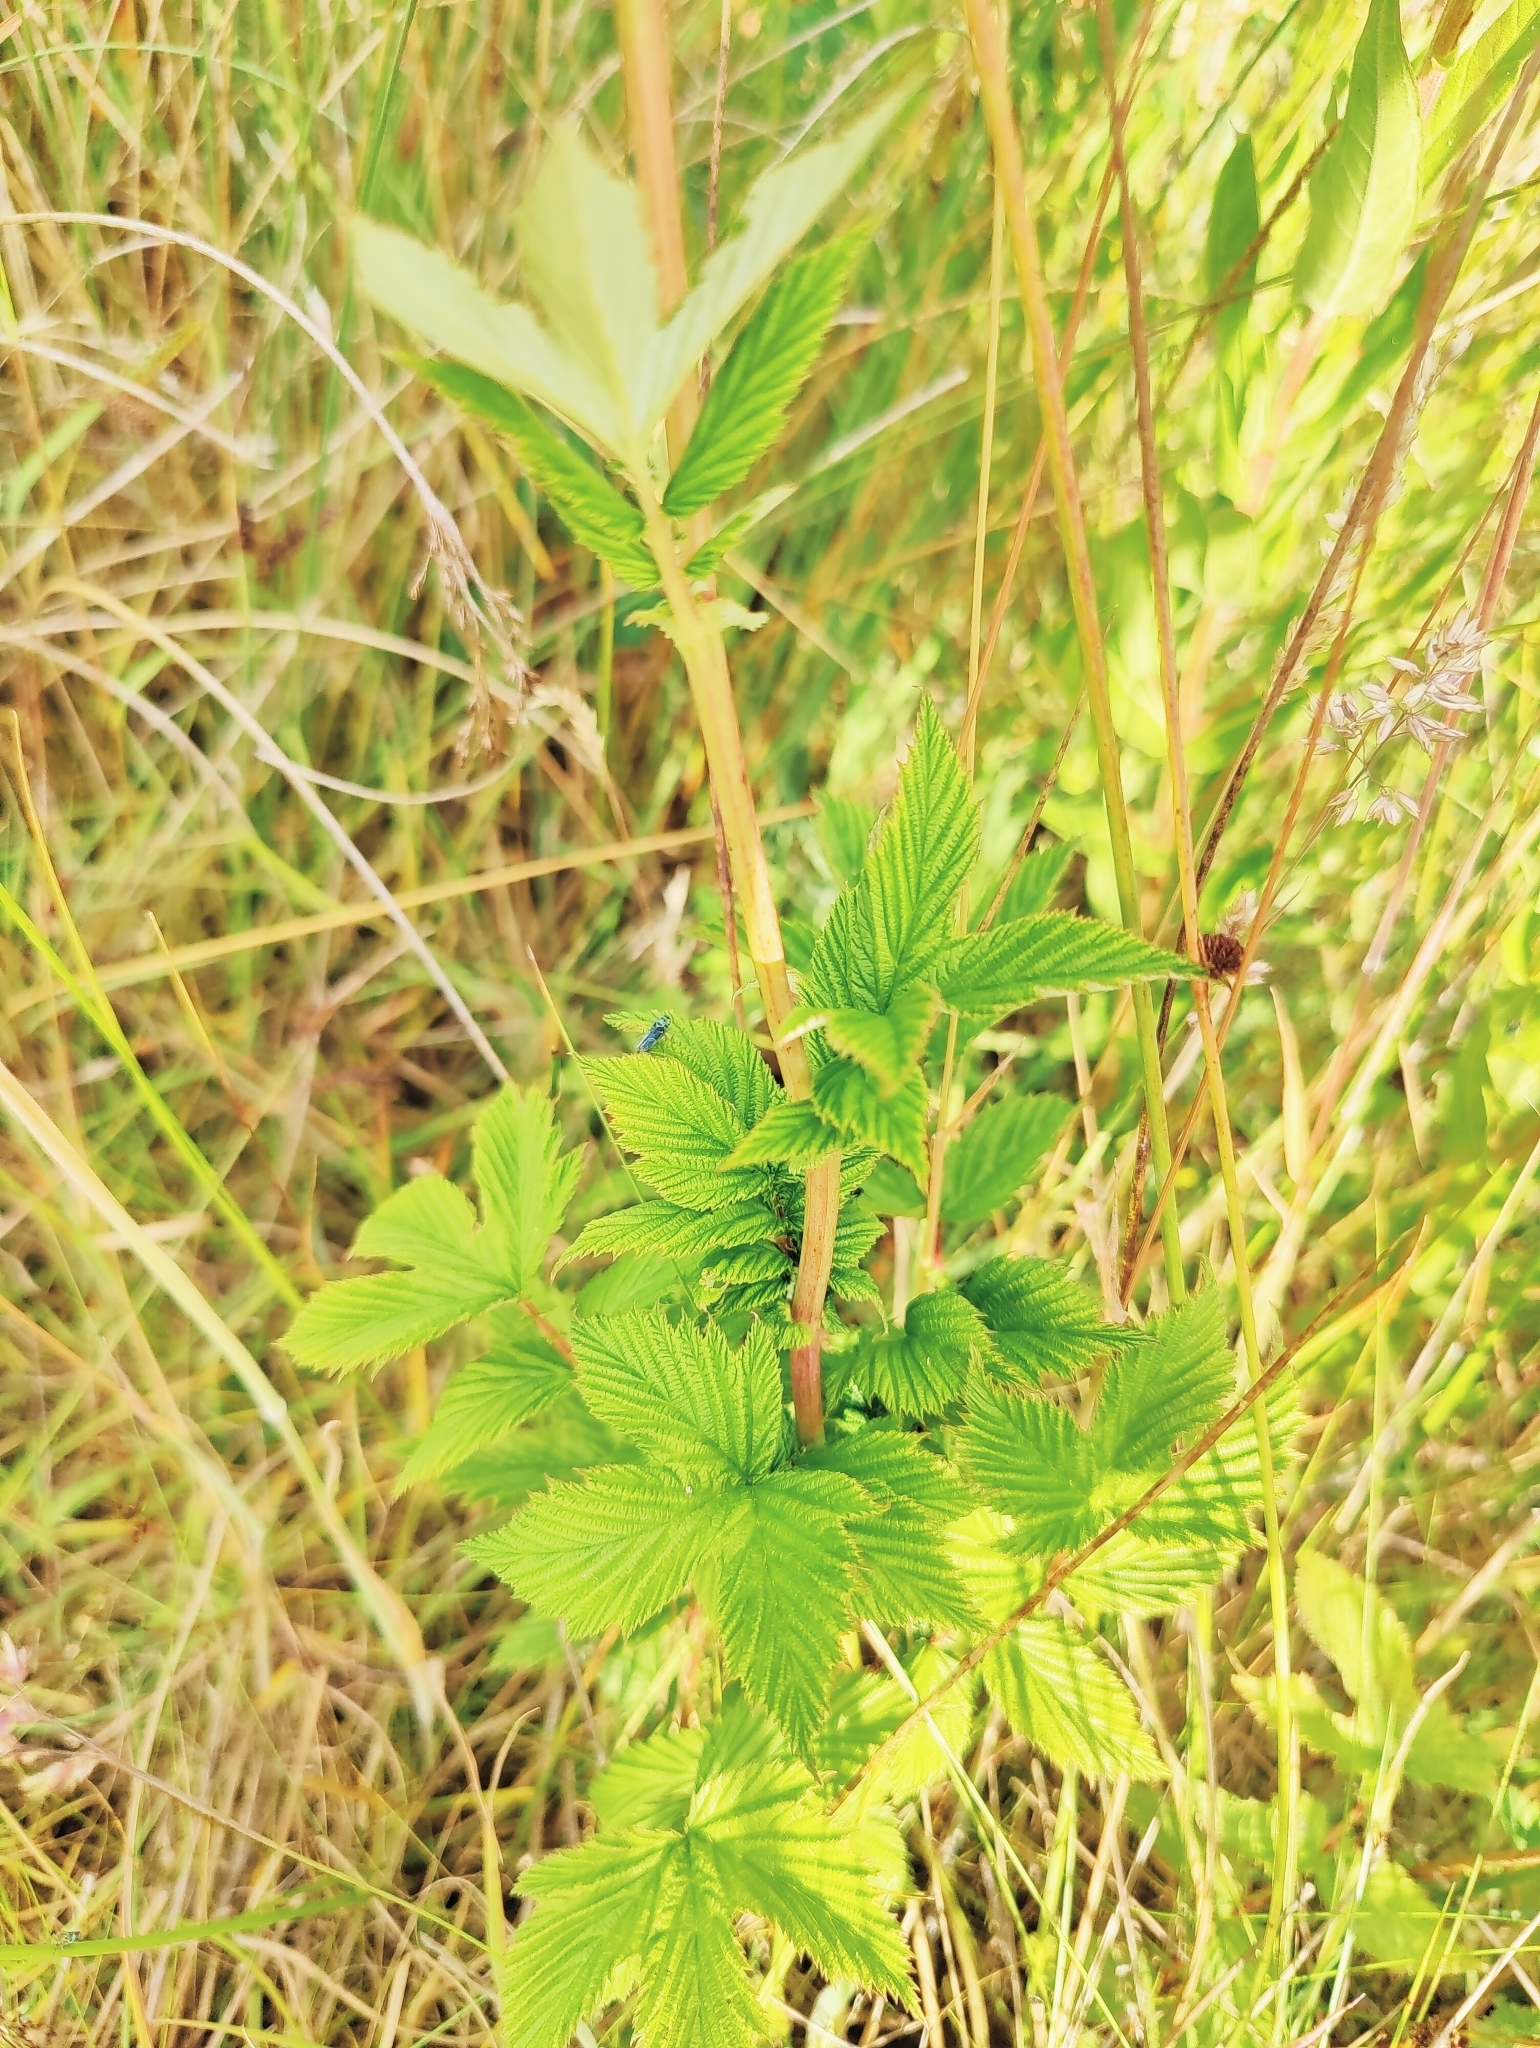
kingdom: Plantae
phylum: Tracheophyta
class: Magnoliopsida
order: Rosales
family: Rosaceae
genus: Filipendula
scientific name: Filipendula ulmaria
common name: Meadowsweet
